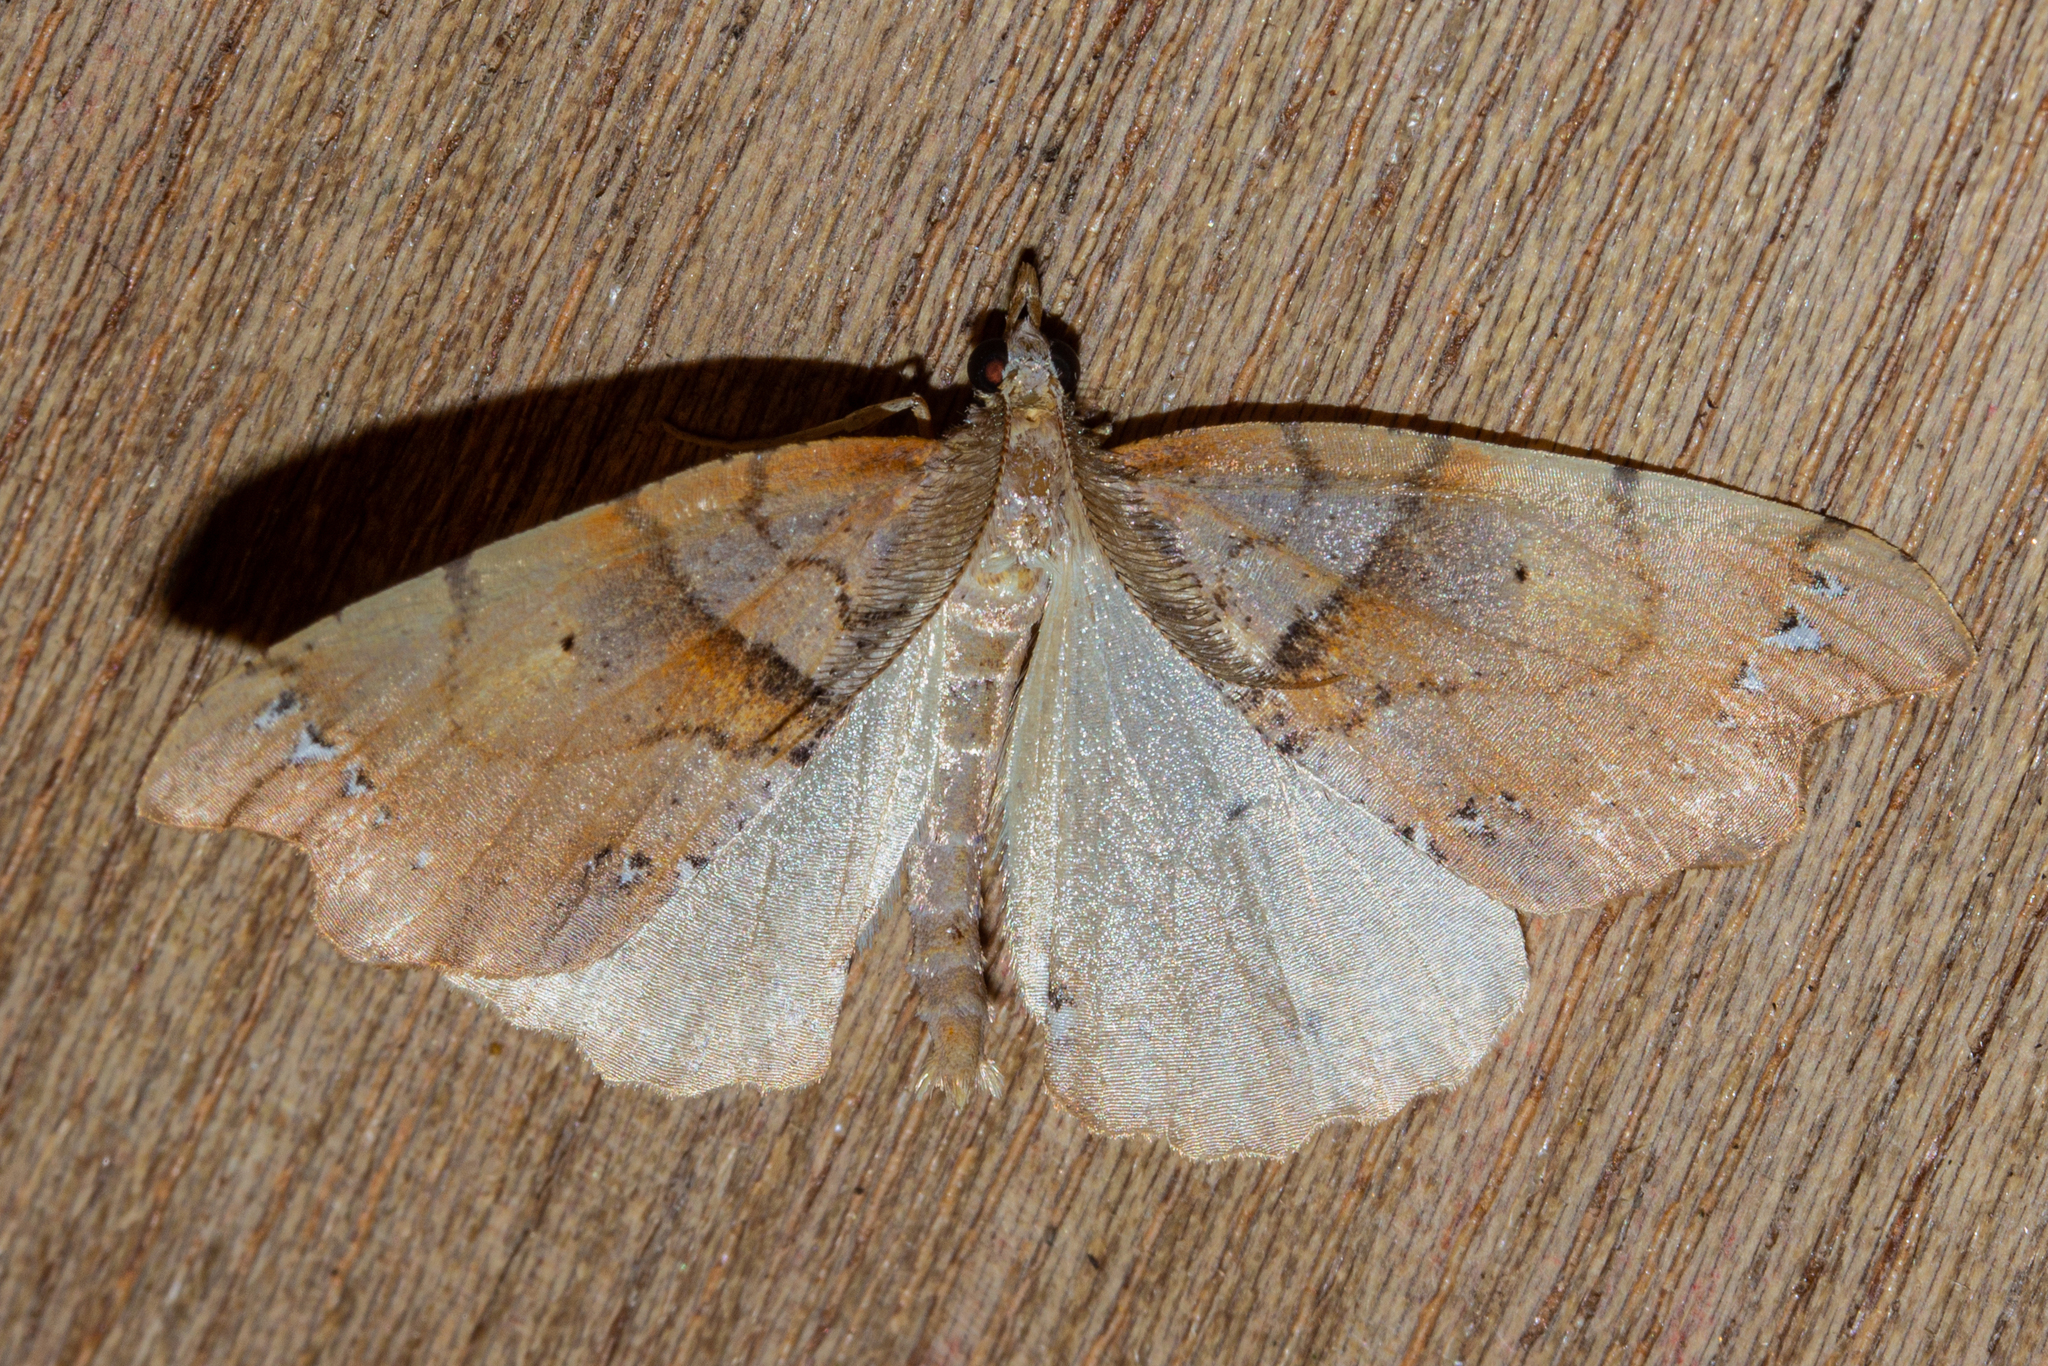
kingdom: Animalia
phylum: Arthropoda
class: Insecta
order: Lepidoptera
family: Geometridae
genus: Chalastra
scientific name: Chalastra pellurgata
